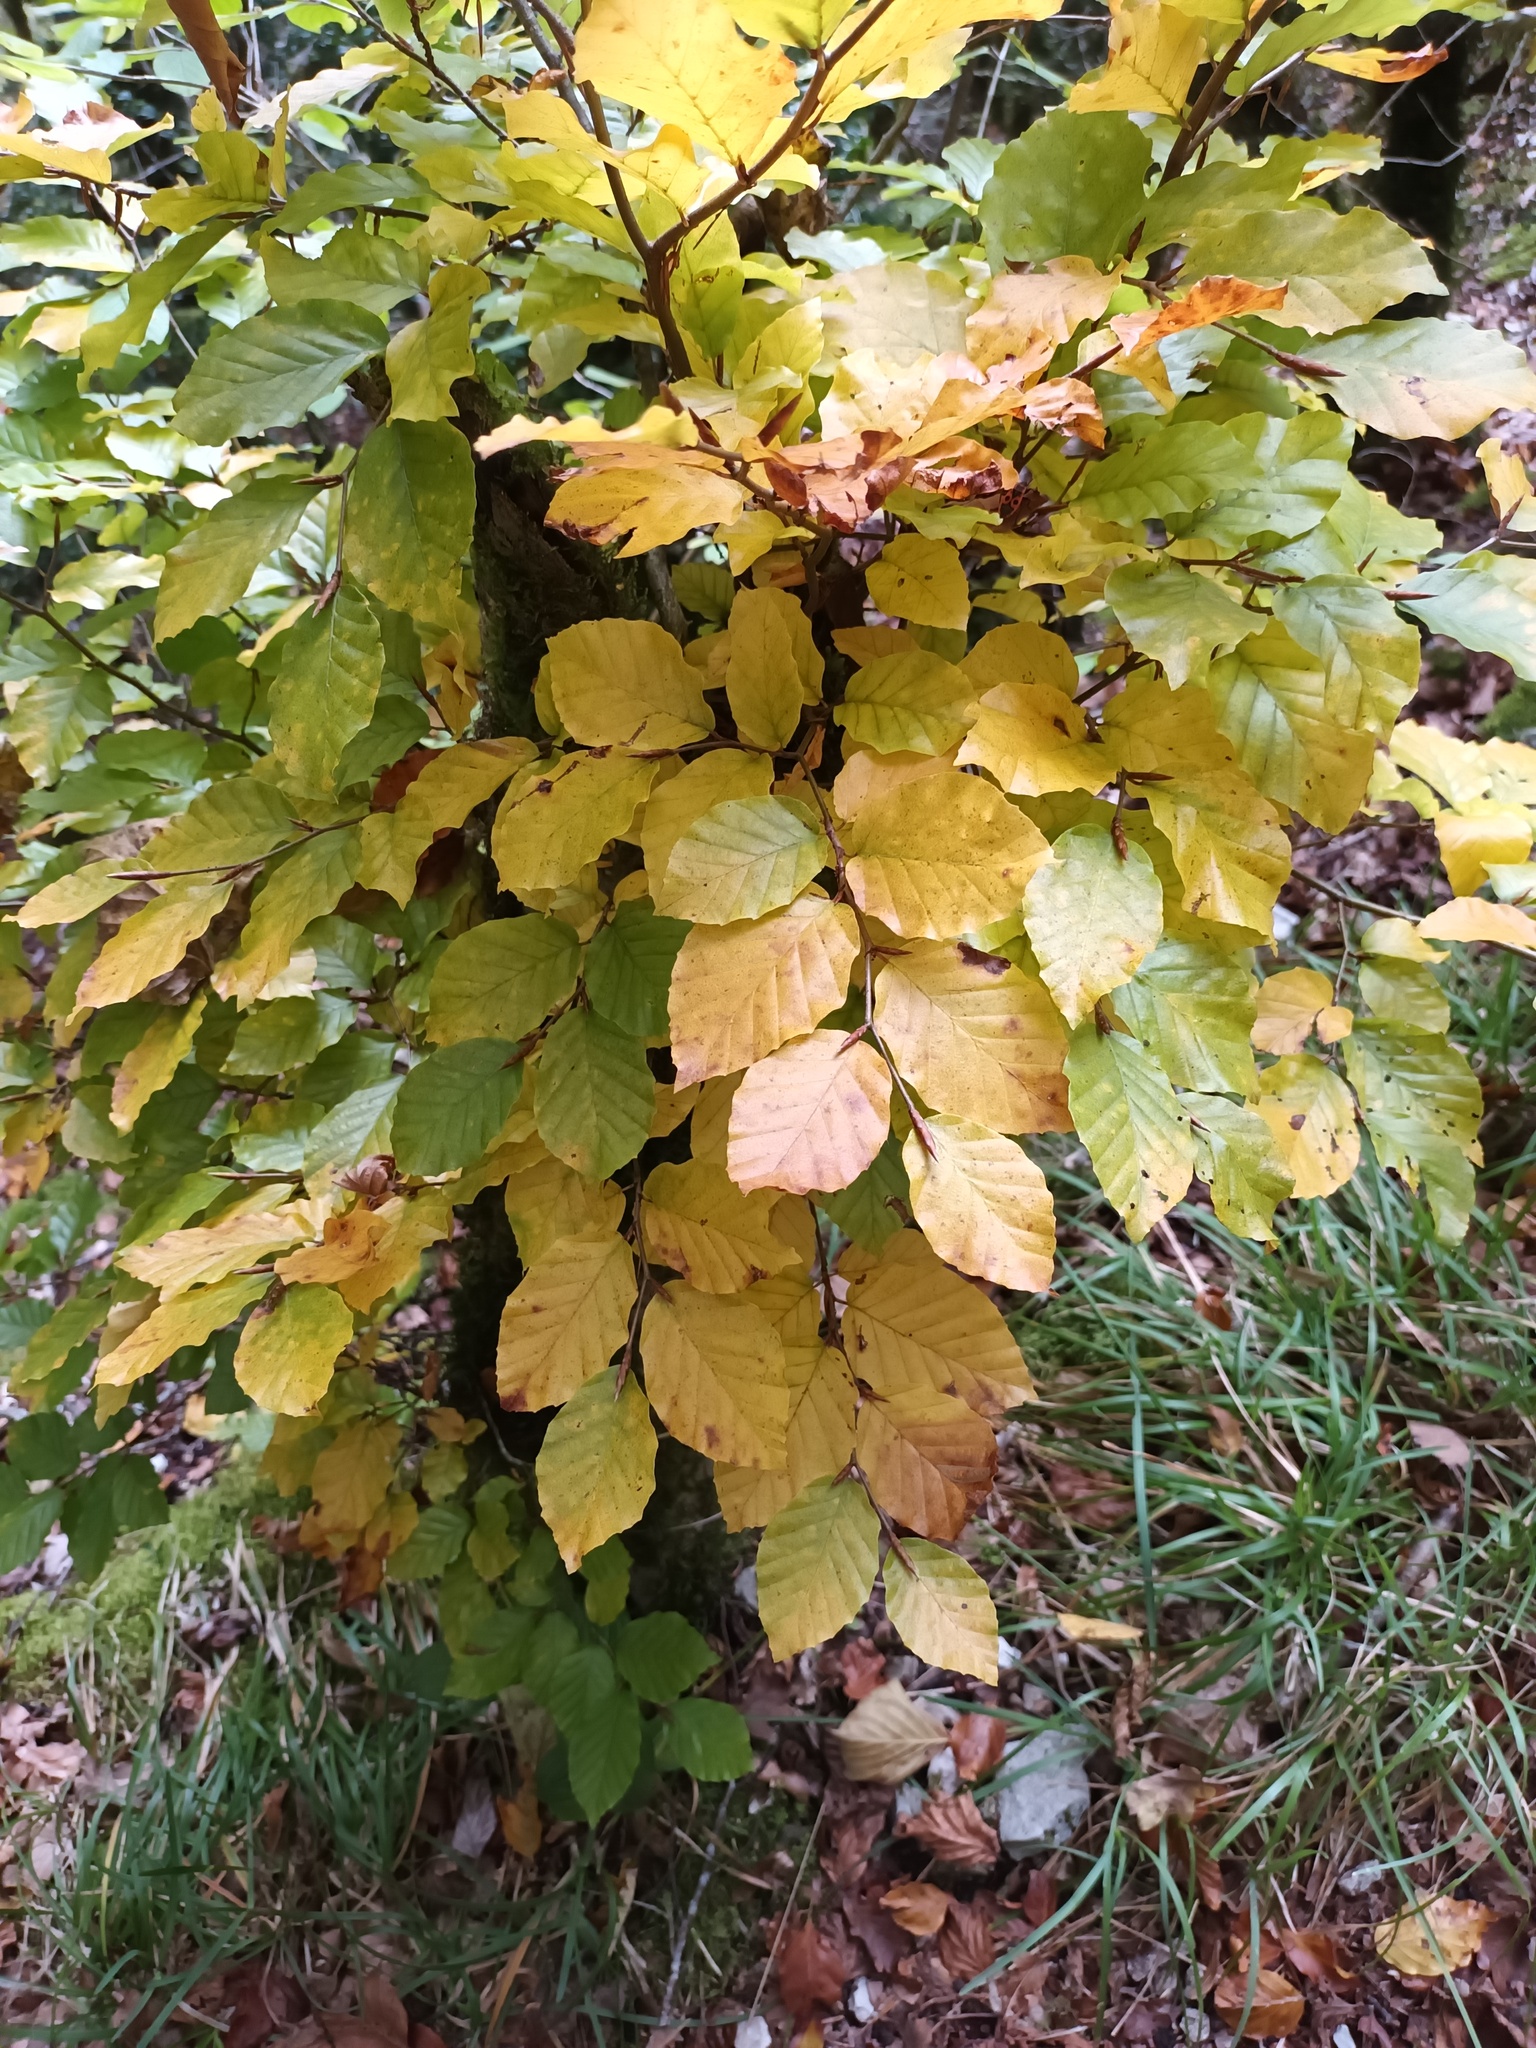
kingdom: Plantae
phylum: Tracheophyta
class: Magnoliopsida
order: Fagales
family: Fagaceae
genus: Fagus
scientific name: Fagus sylvatica
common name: Beech
